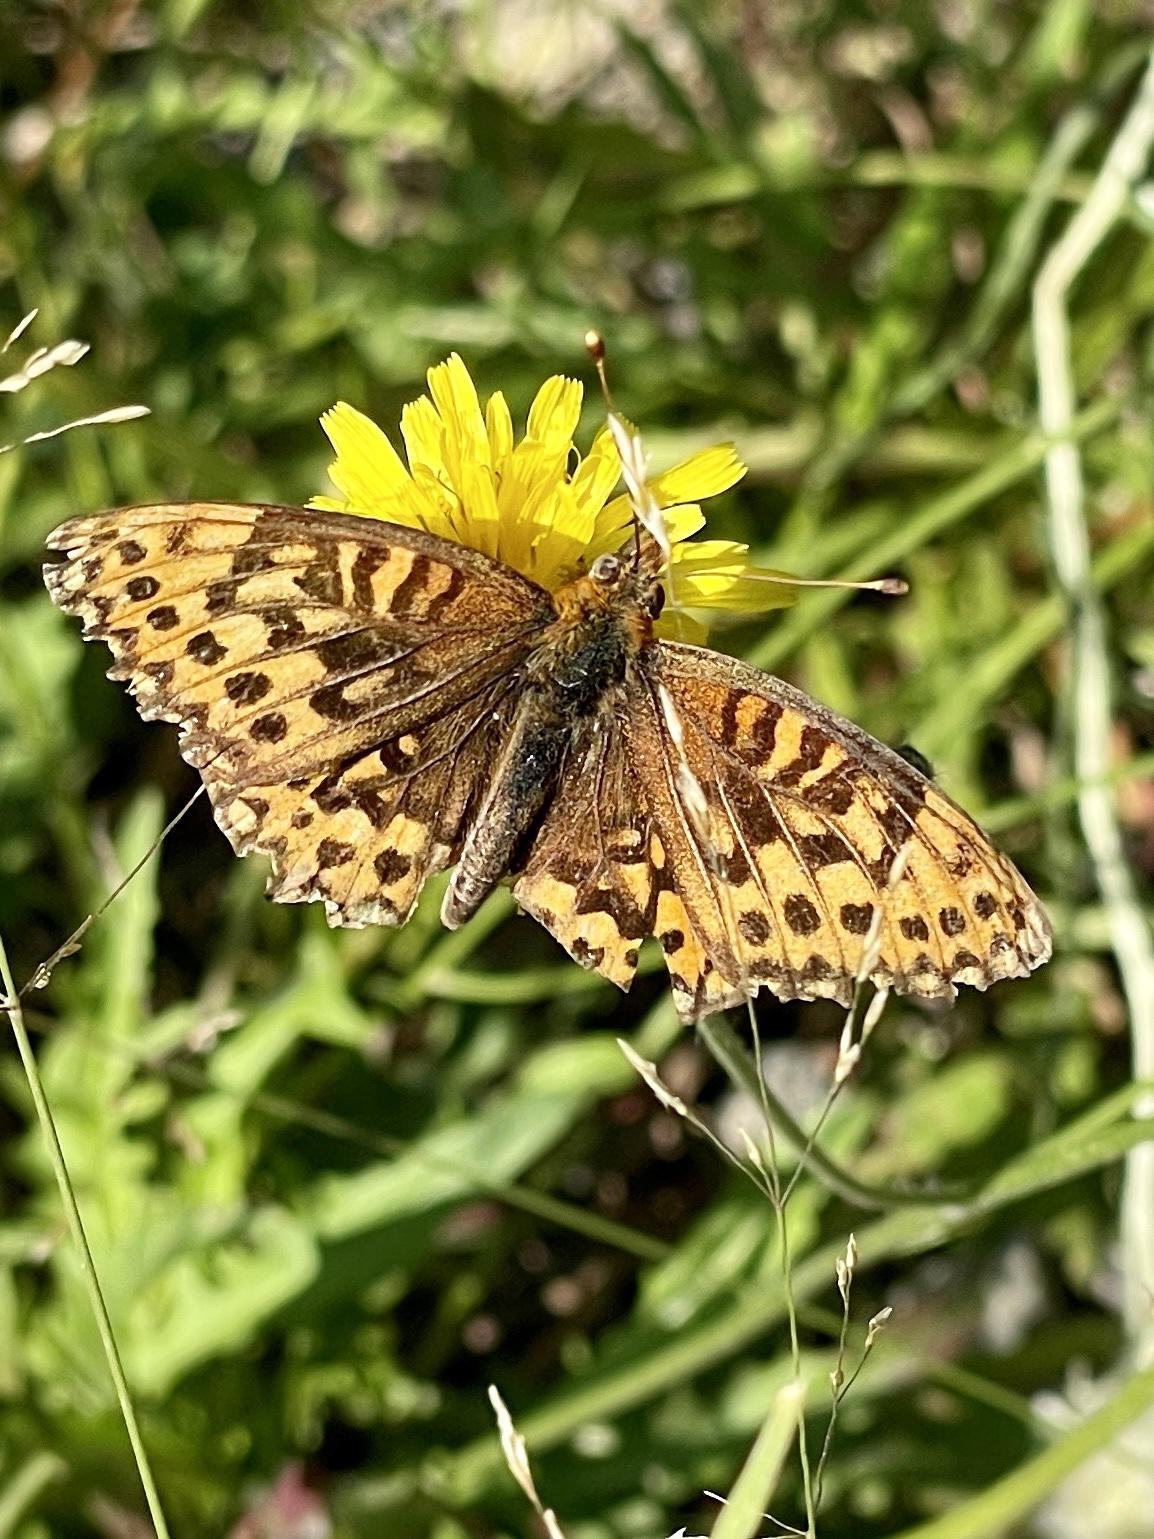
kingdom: Animalia
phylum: Arthropoda
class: Insecta
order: Lepidoptera
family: Nymphalidae
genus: Speyeria
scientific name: Speyeria hydaspe
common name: Hydaspe fritillary
